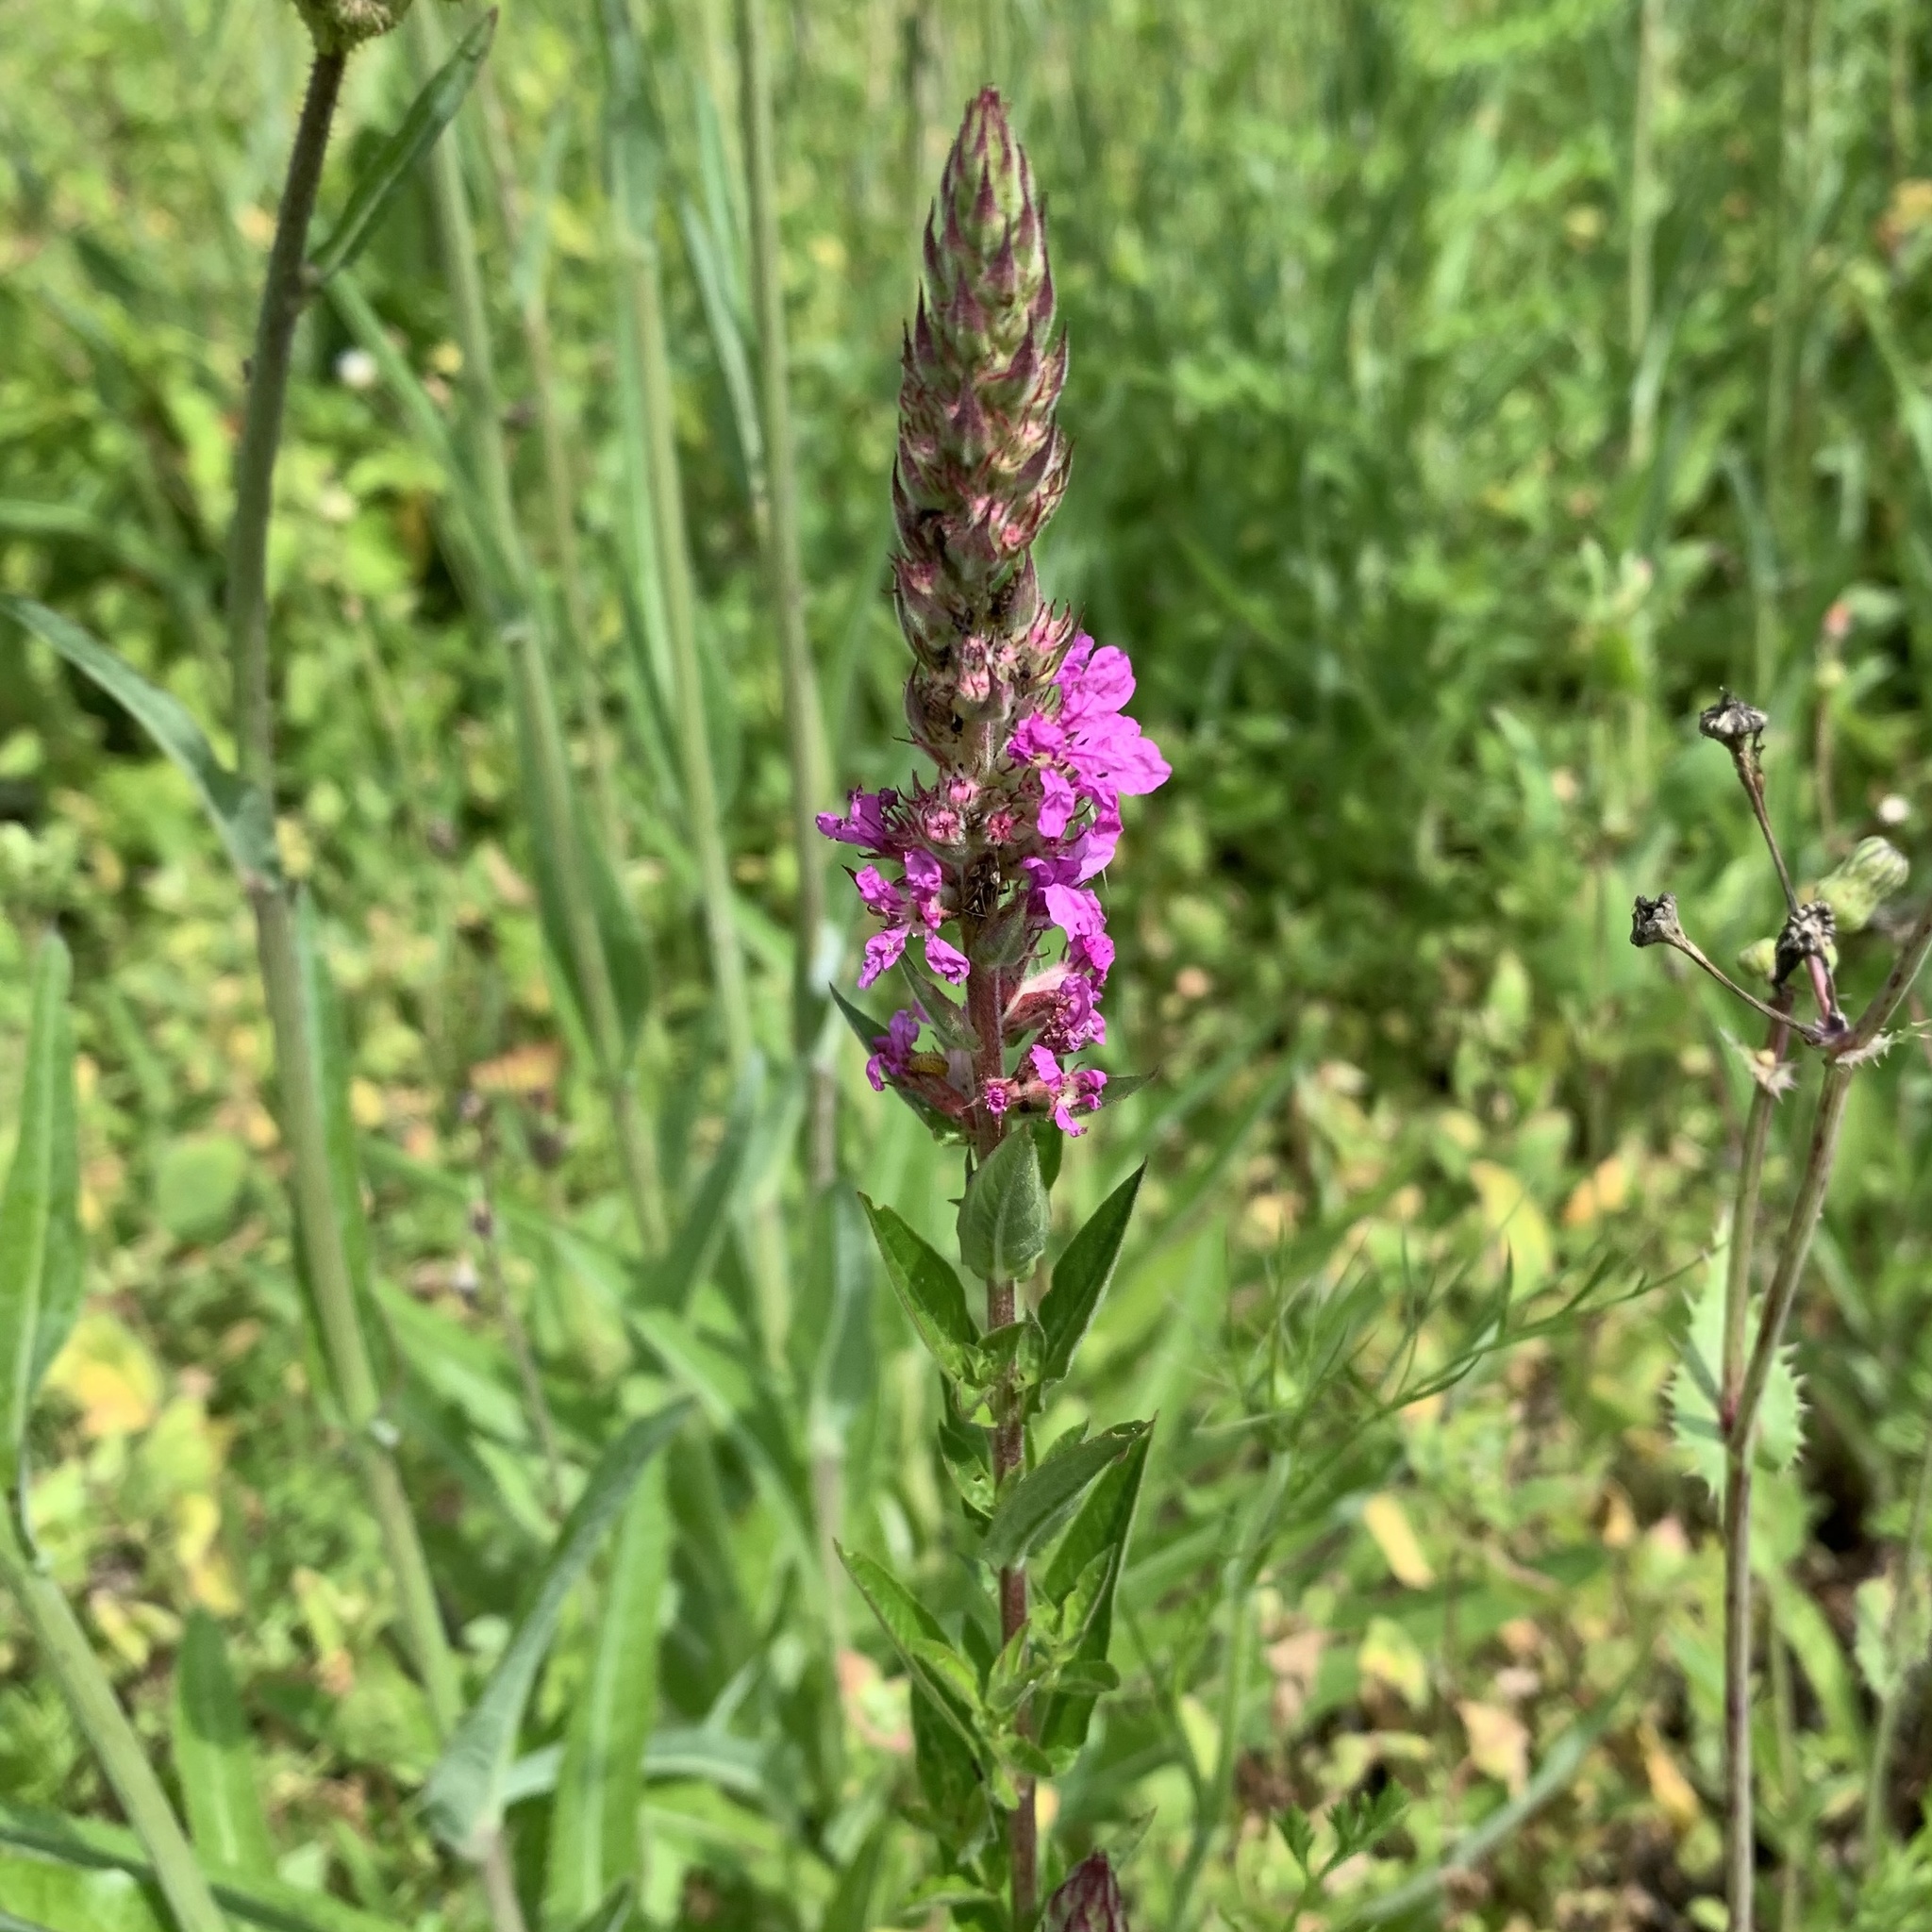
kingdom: Plantae
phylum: Tracheophyta
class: Magnoliopsida
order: Myrtales
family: Lythraceae
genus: Lythrum
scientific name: Lythrum salicaria
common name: Purple loosestrife
